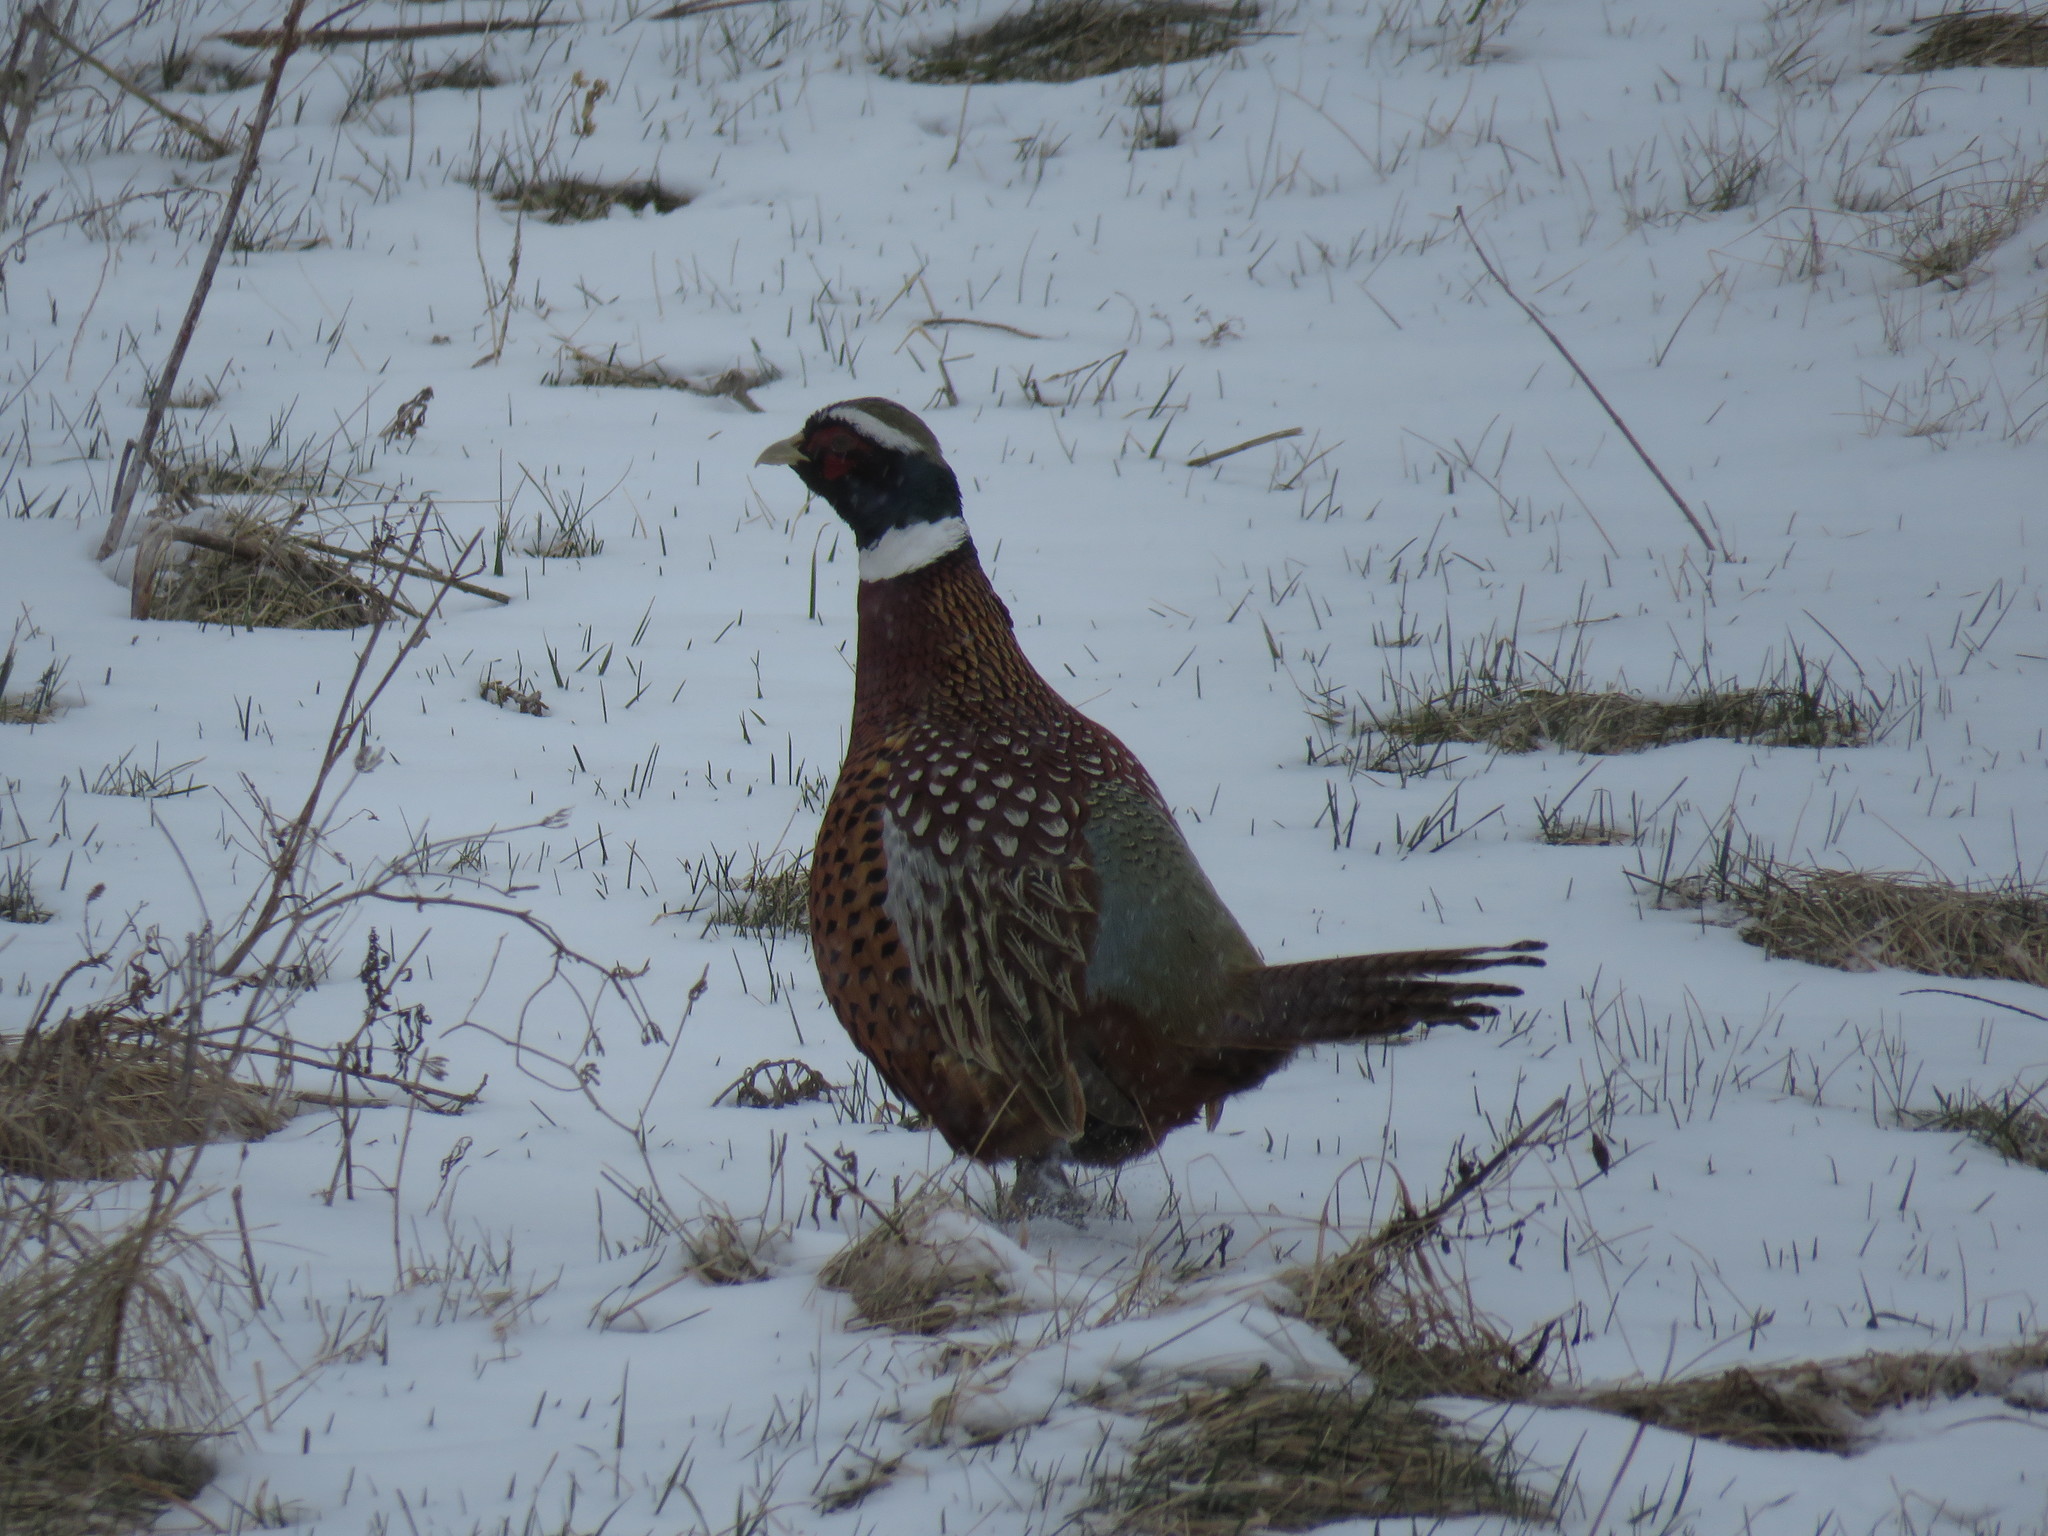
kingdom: Animalia
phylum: Chordata
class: Aves
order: Galliformes
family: Phasianidae
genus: Phasianus
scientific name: Phasianus colchicus
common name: Common pheasant
